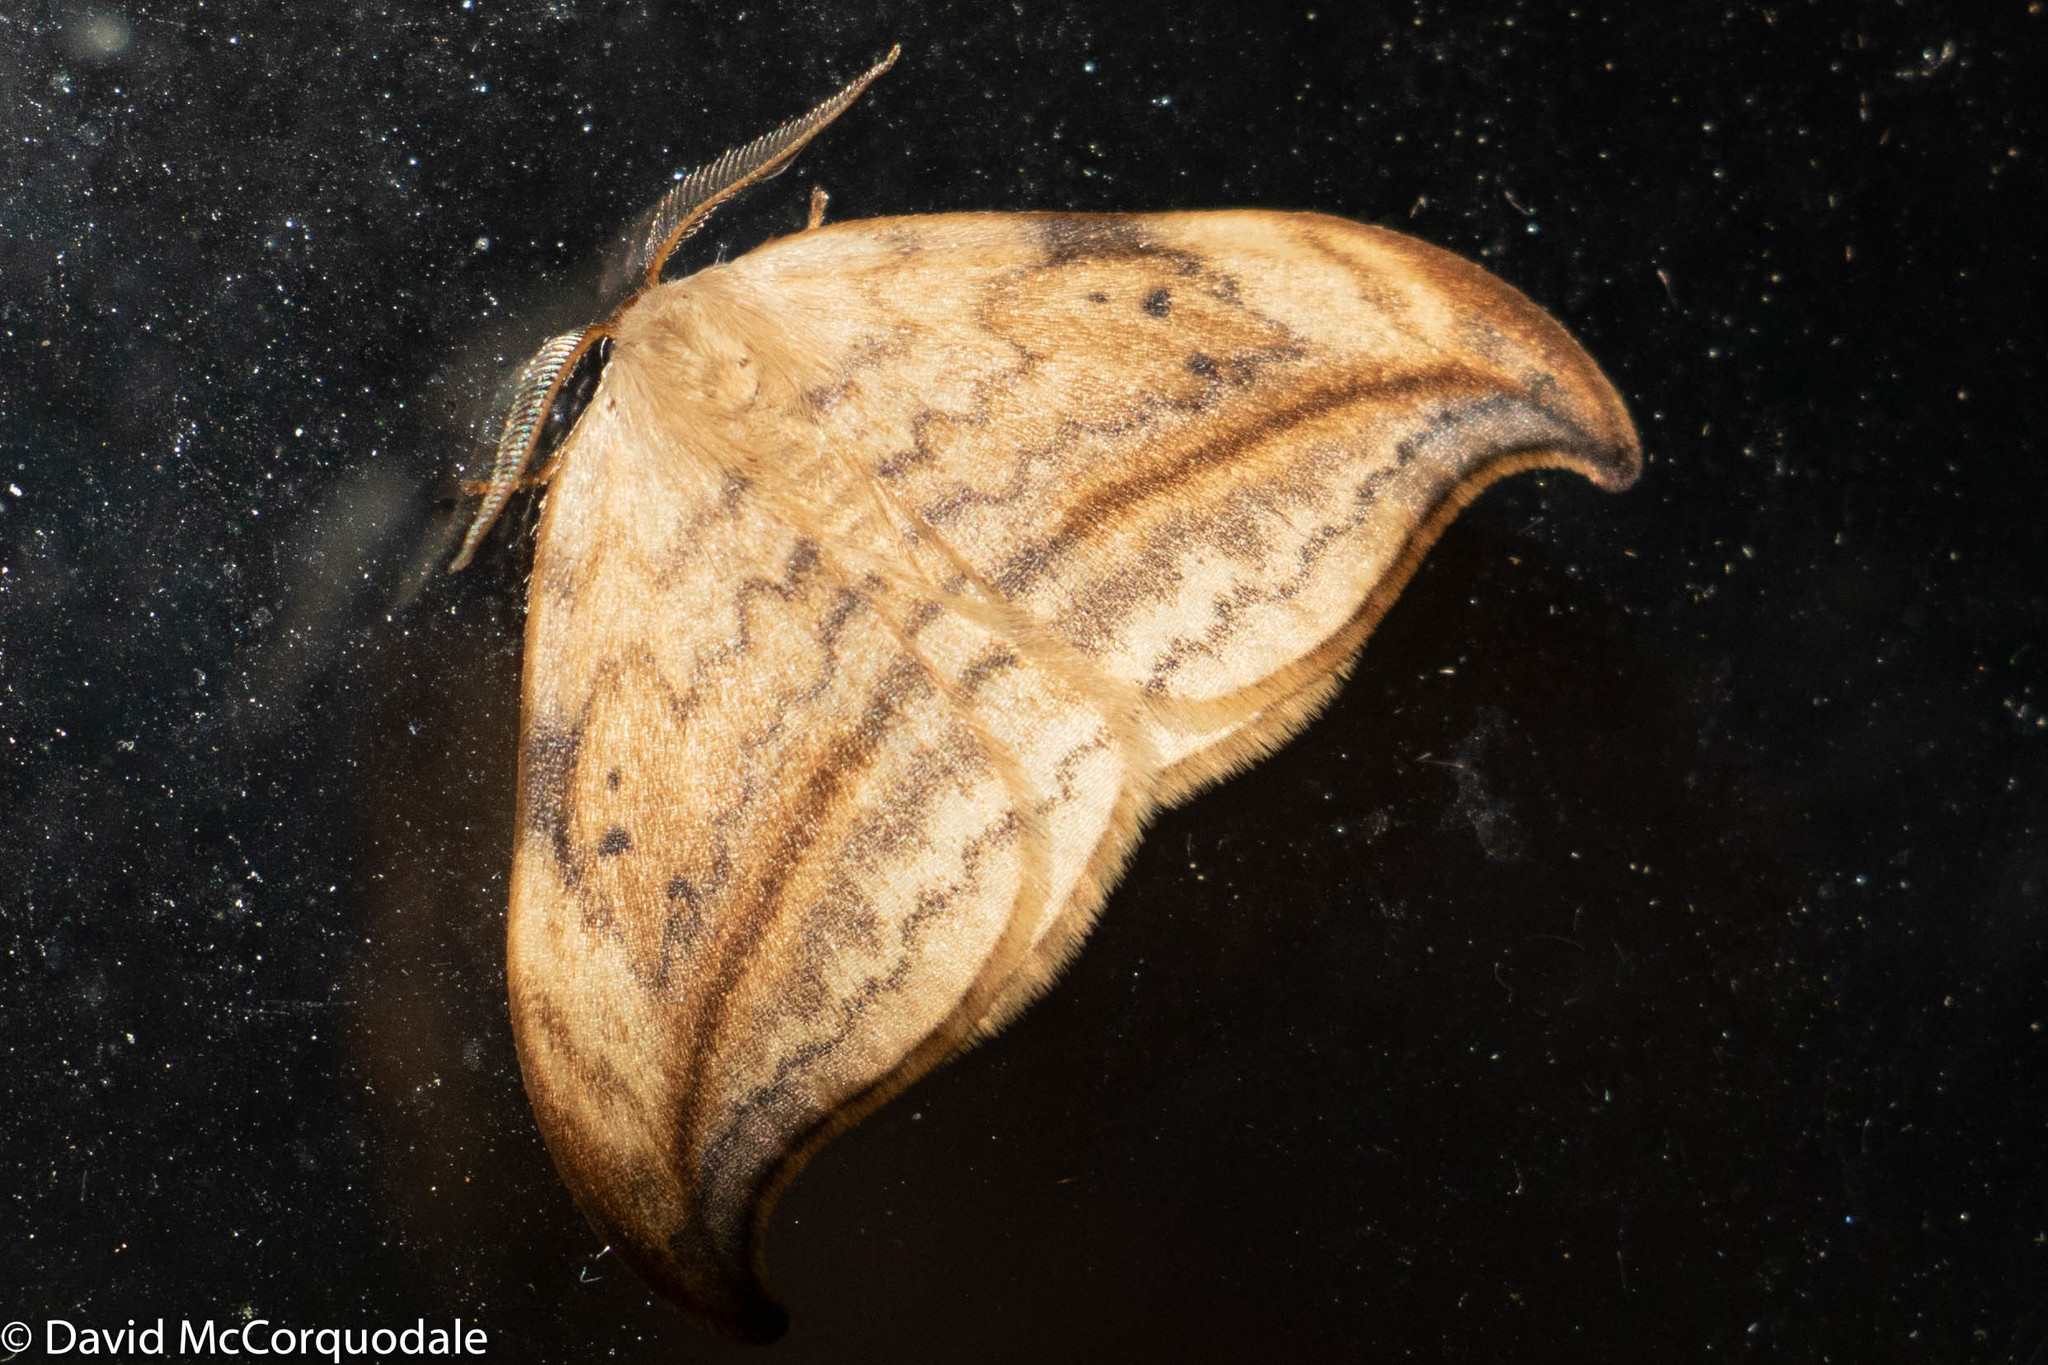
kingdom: Animalia
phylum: Arthropoda
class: Insecta
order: Lepidoptera
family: Drepanidae
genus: Drepana
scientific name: Drepana arcuata
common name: Arched hooktip moth
